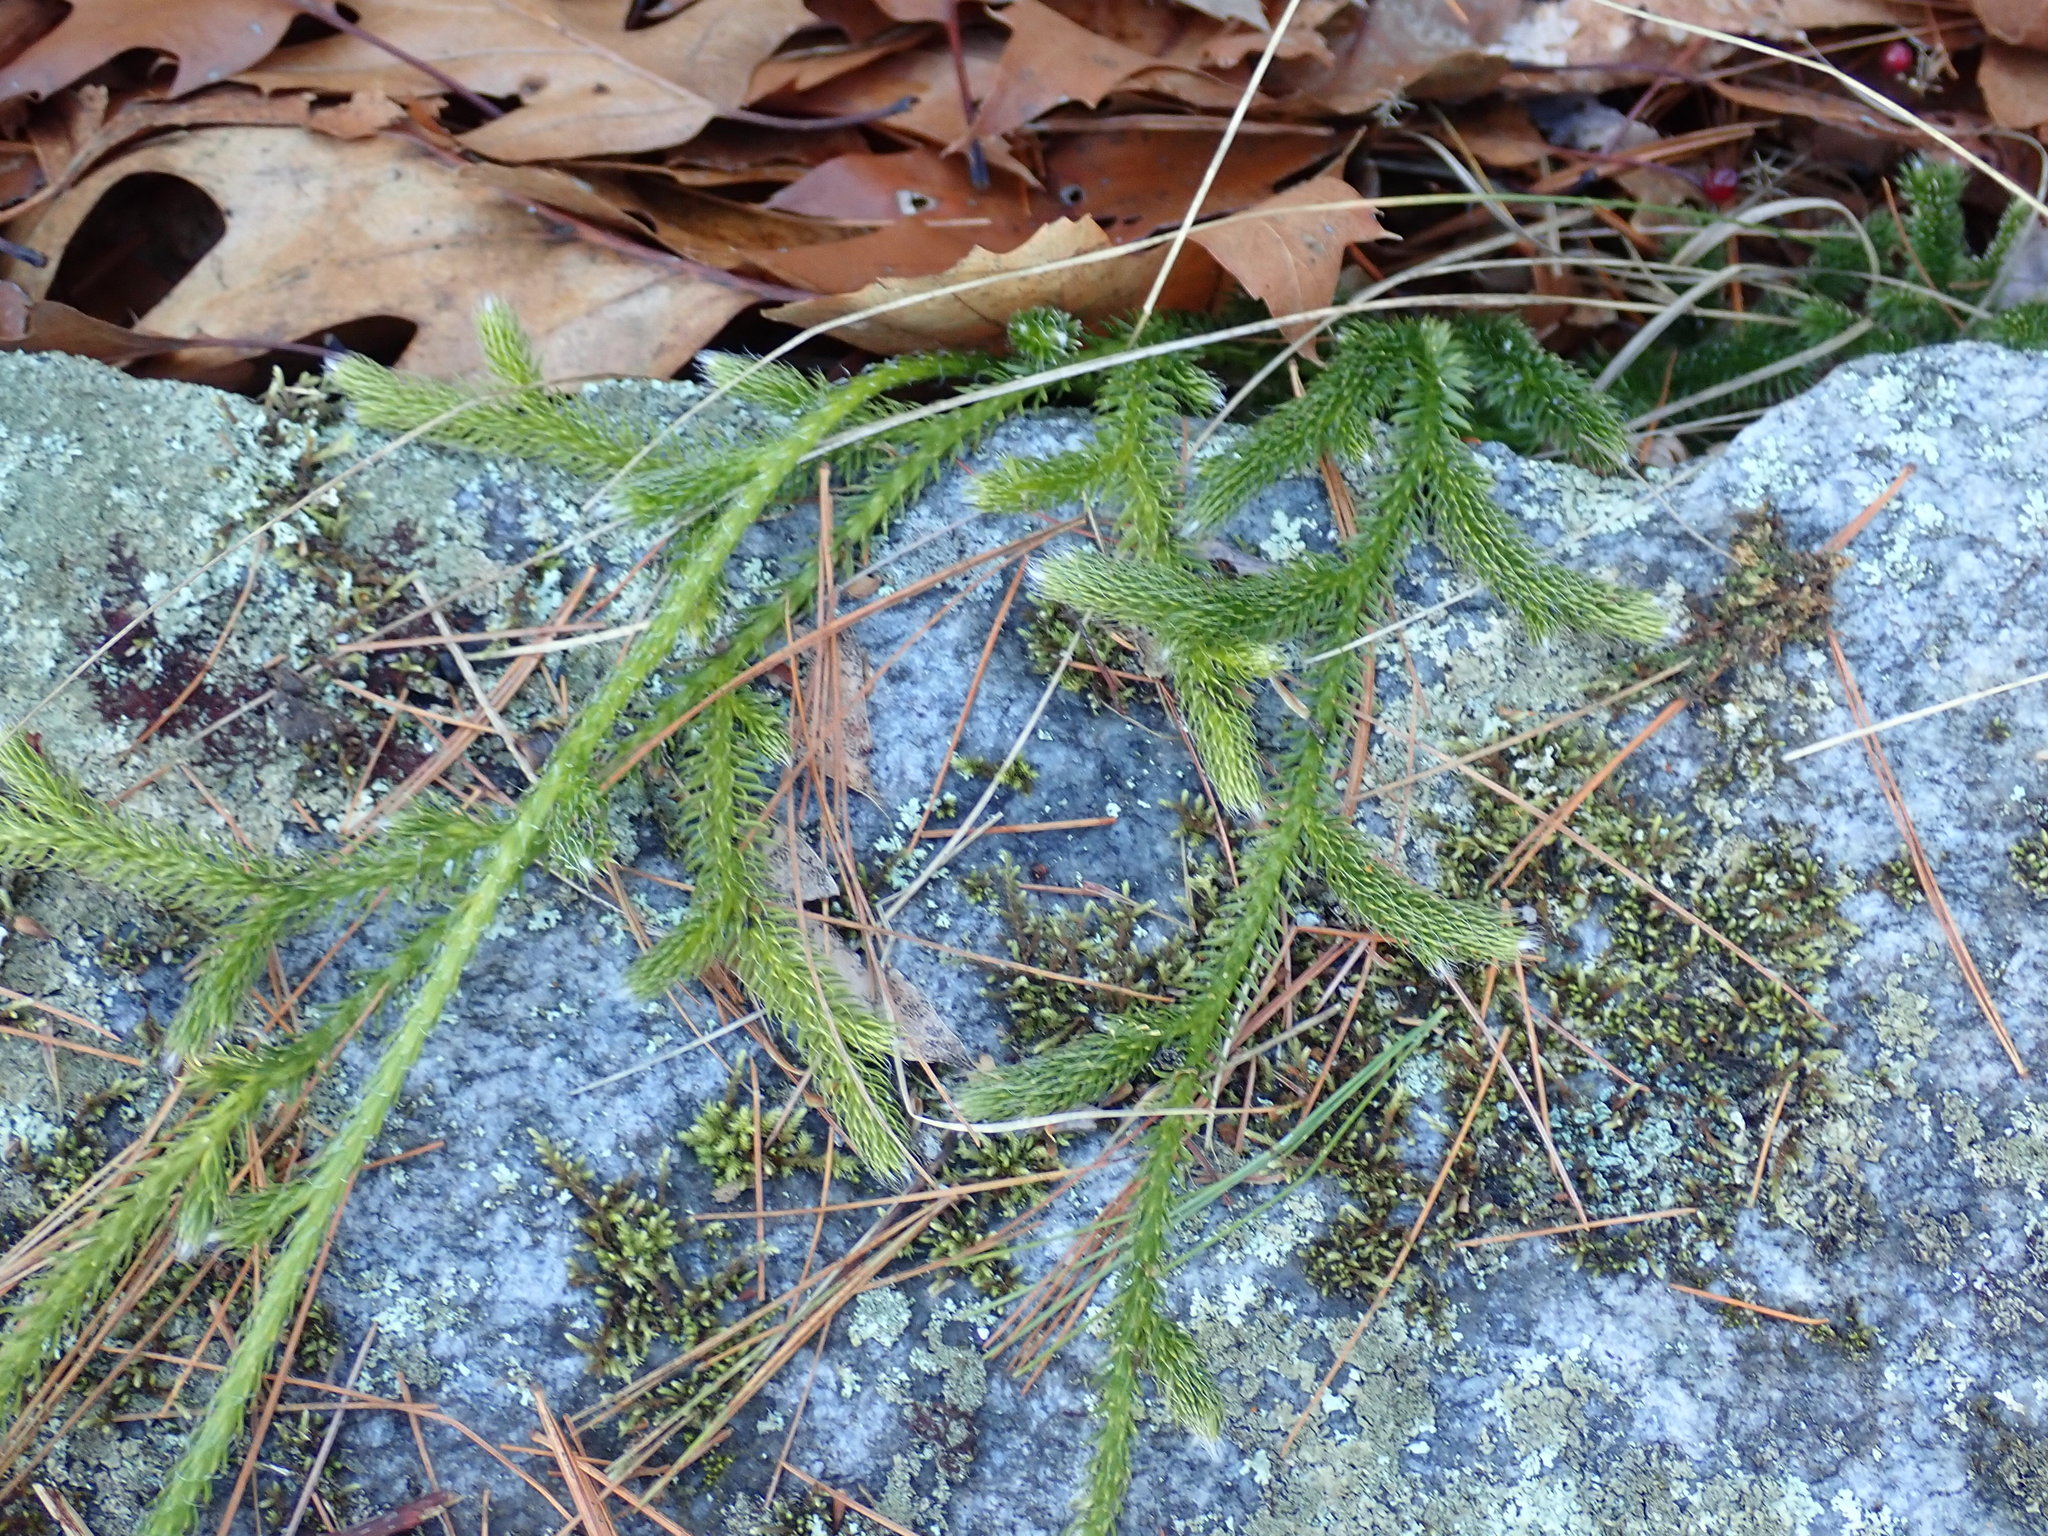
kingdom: Plantae
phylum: Tracheophyta
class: Lycopodiopsida
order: Lycopodiales
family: Lycopodiaceae
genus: Lycopodium
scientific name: Lycopodium clavatum
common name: Stag's-horn clubmoss
